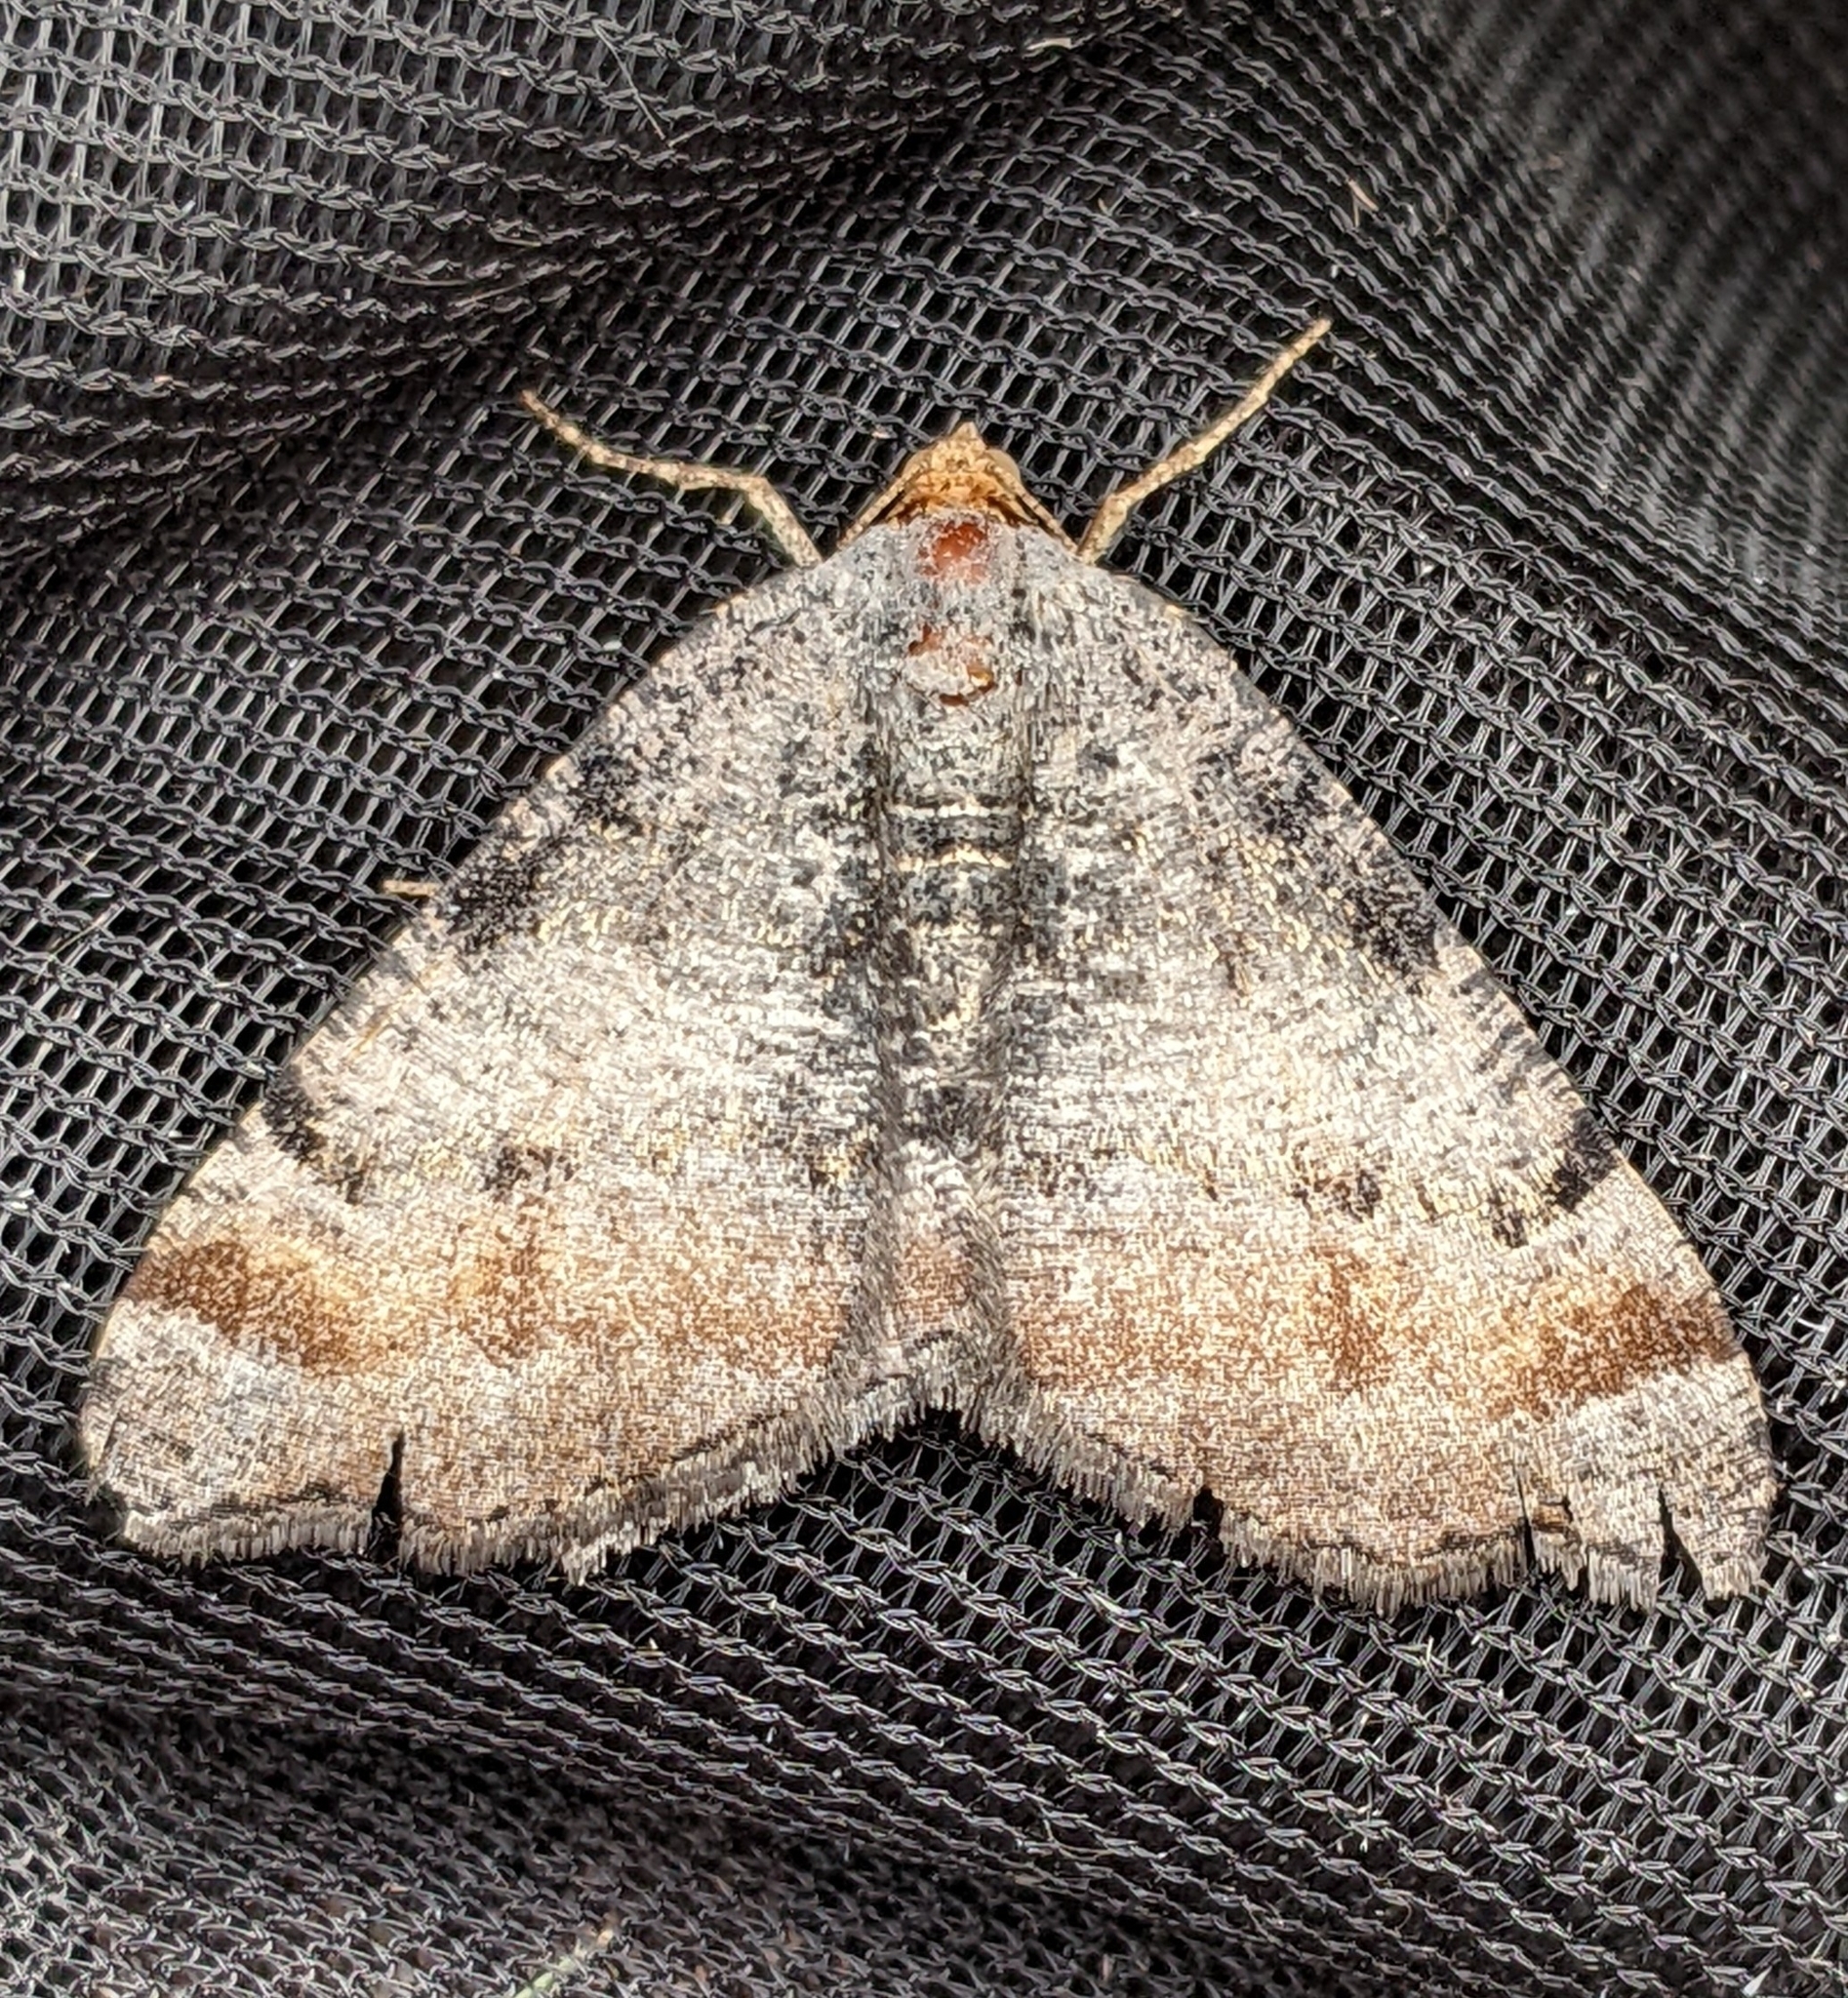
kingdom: Animalia
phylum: Arthropoda
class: Insecta
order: Lepidoptera
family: Geometridae
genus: Macaria
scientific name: Macaria adonis
